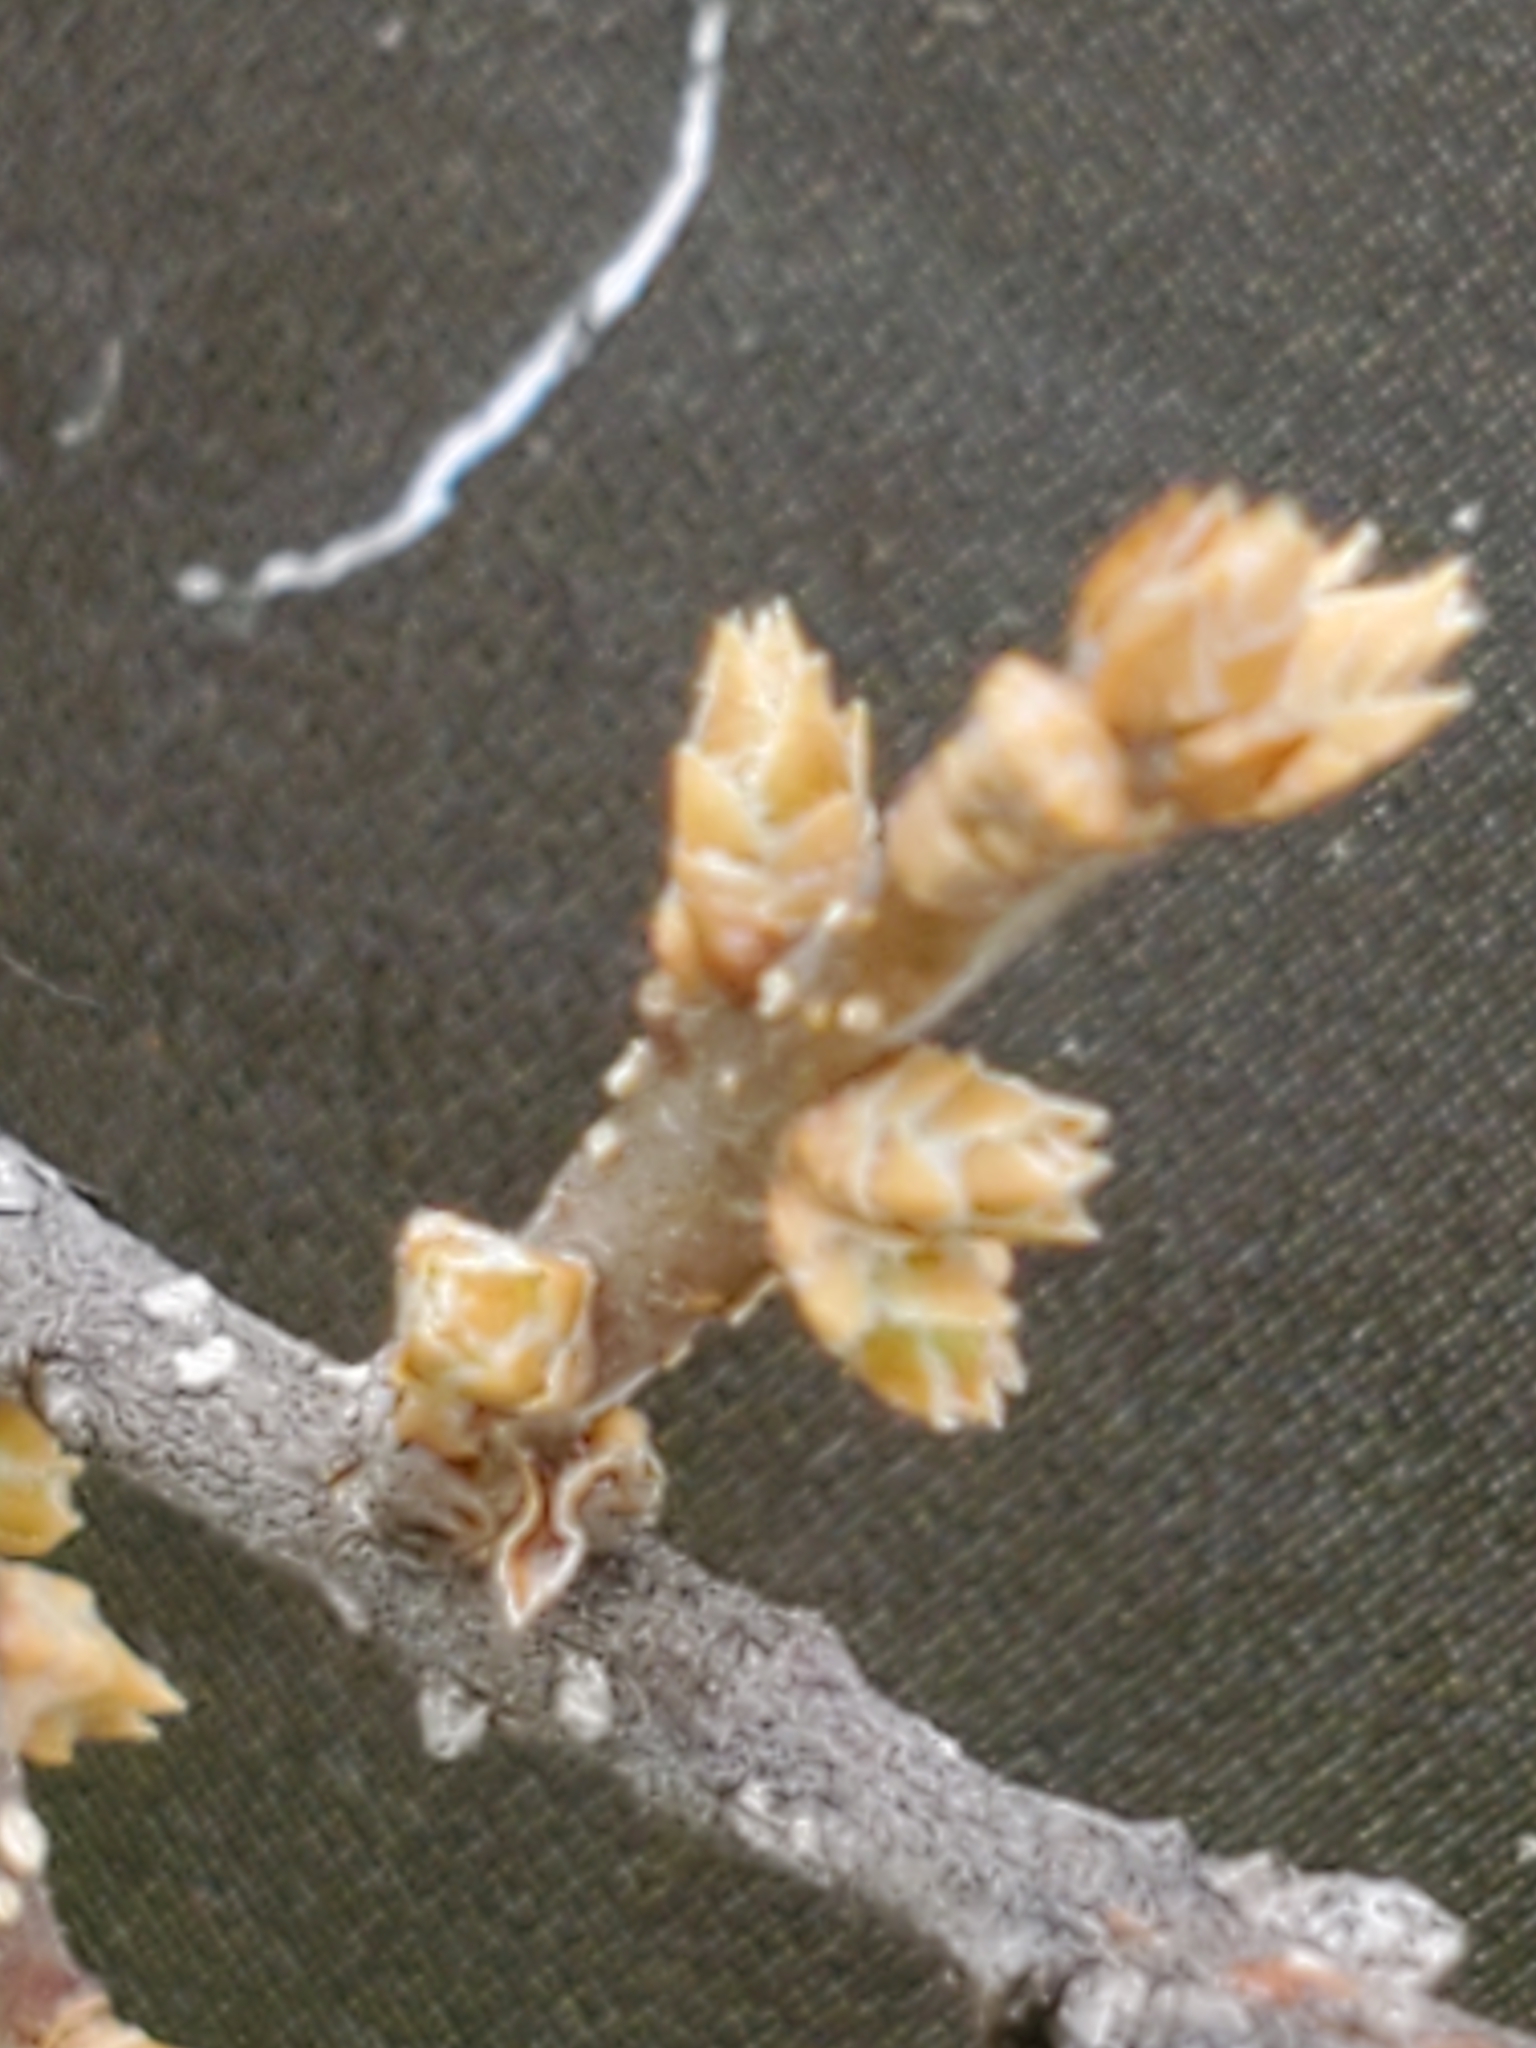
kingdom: Plantae
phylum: Tracheophyta
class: Magnoliopsida
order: Lamiales
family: Oleaceae
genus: Forestiera
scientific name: Forestiera reticulata
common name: Netleaf swamp-privet
